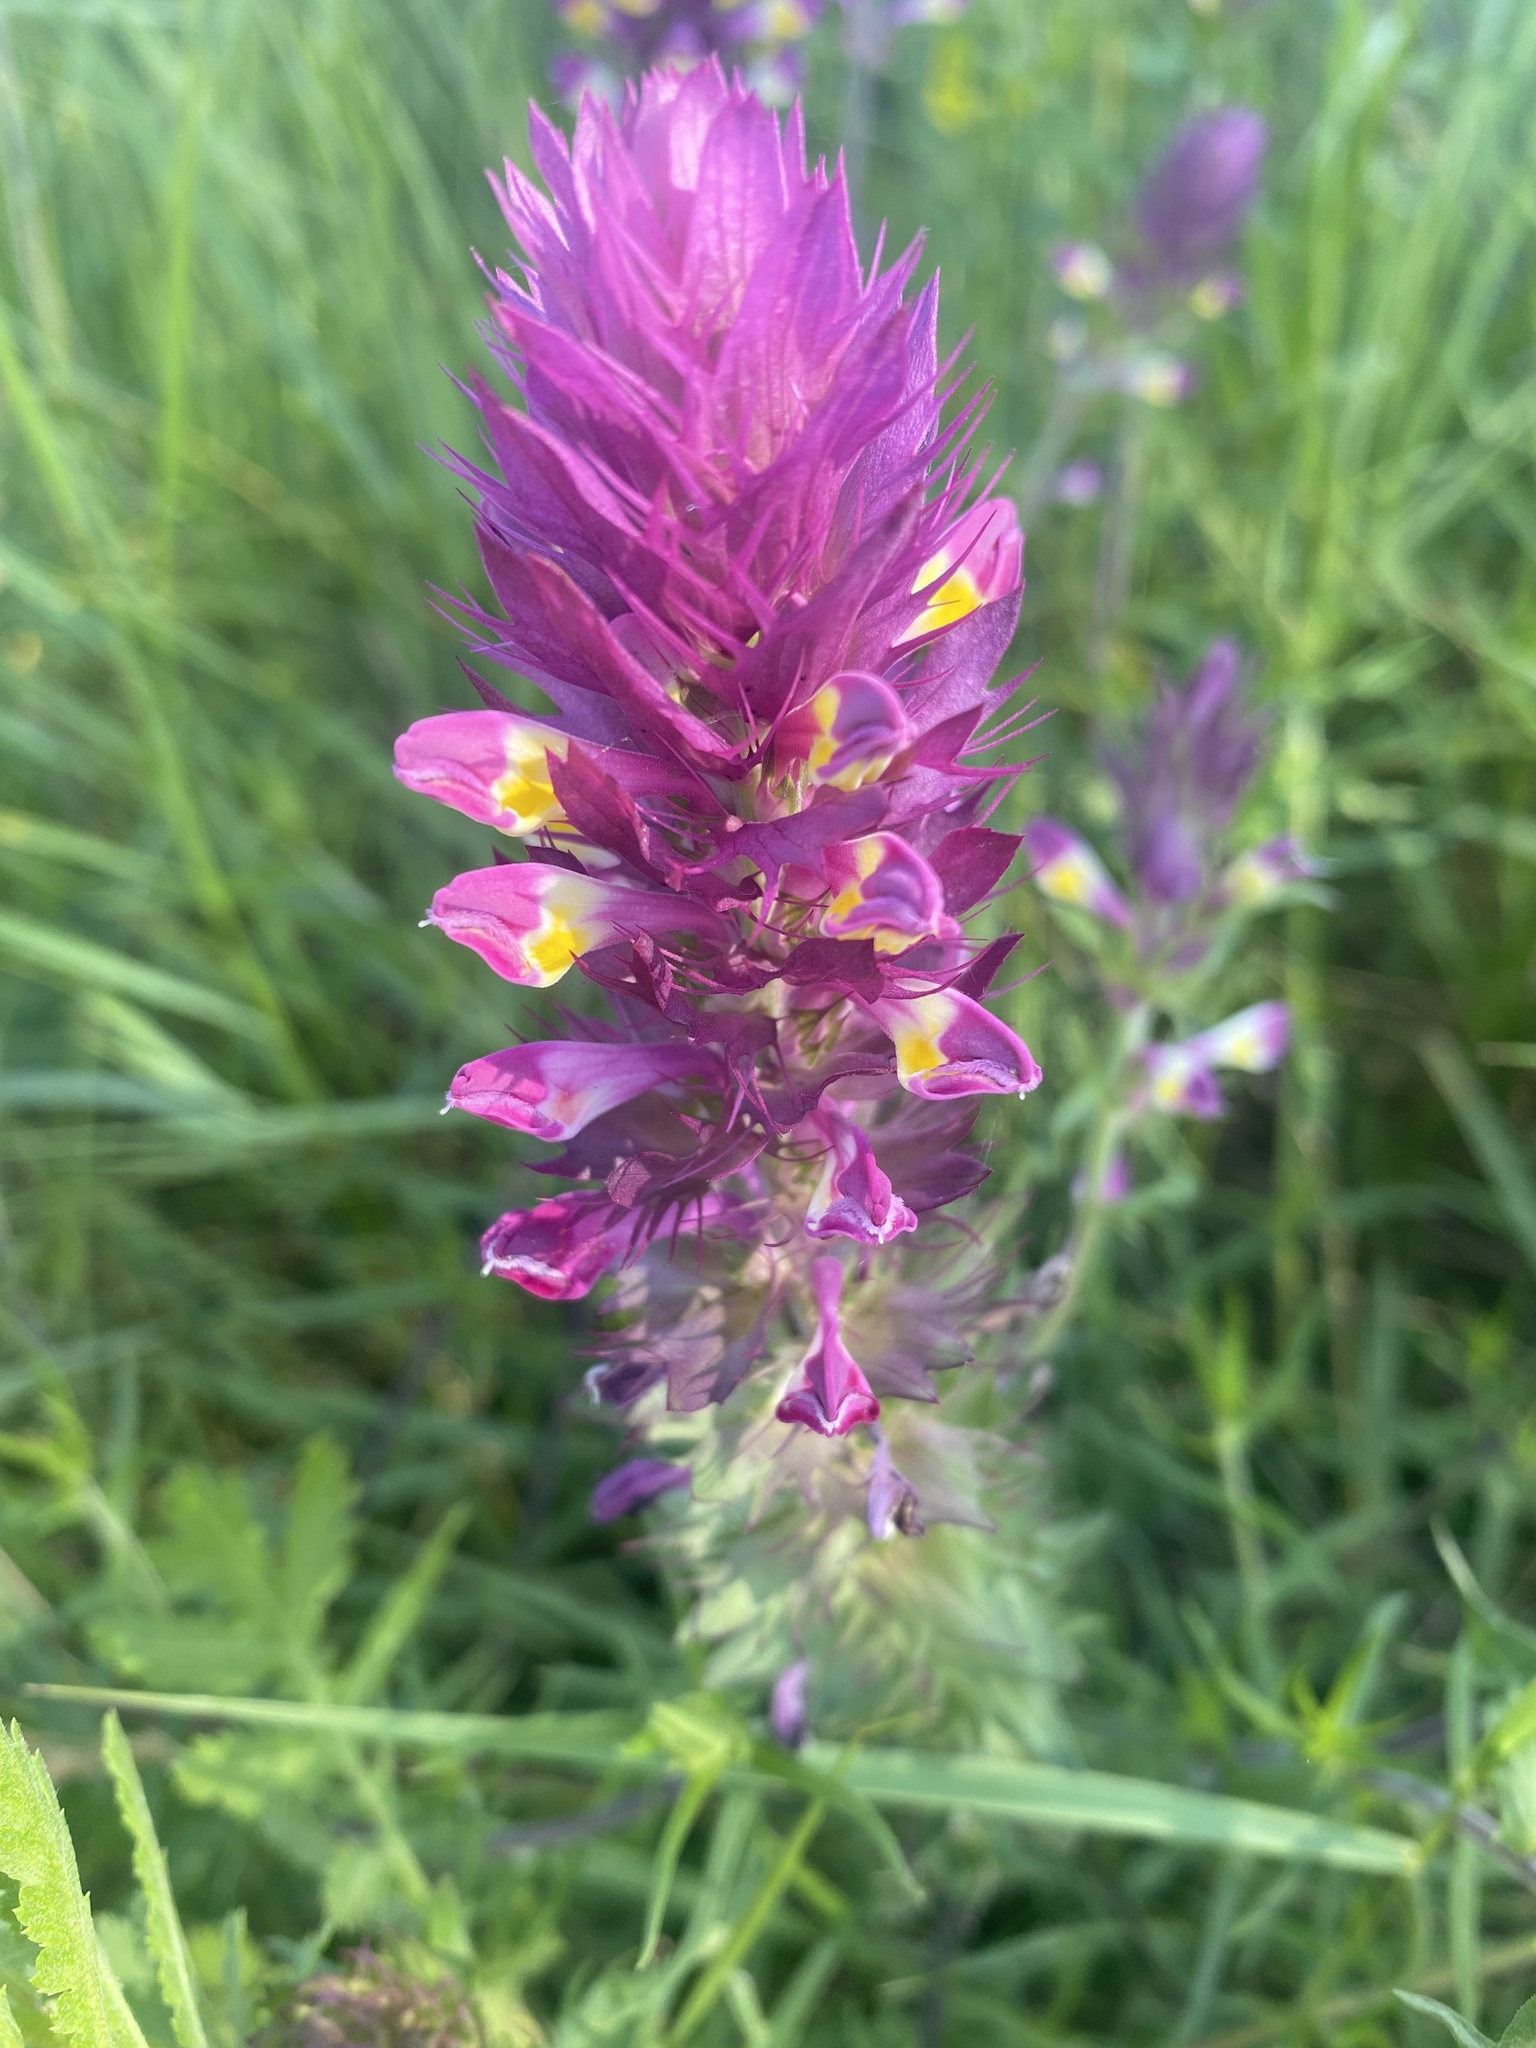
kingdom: Plantae
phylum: Tracheophyta
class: Magnoliopsida
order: Lamiales
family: Orobanchaceae
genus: Melampyrum
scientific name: Melampyrum arvense
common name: Field cow-wheat
